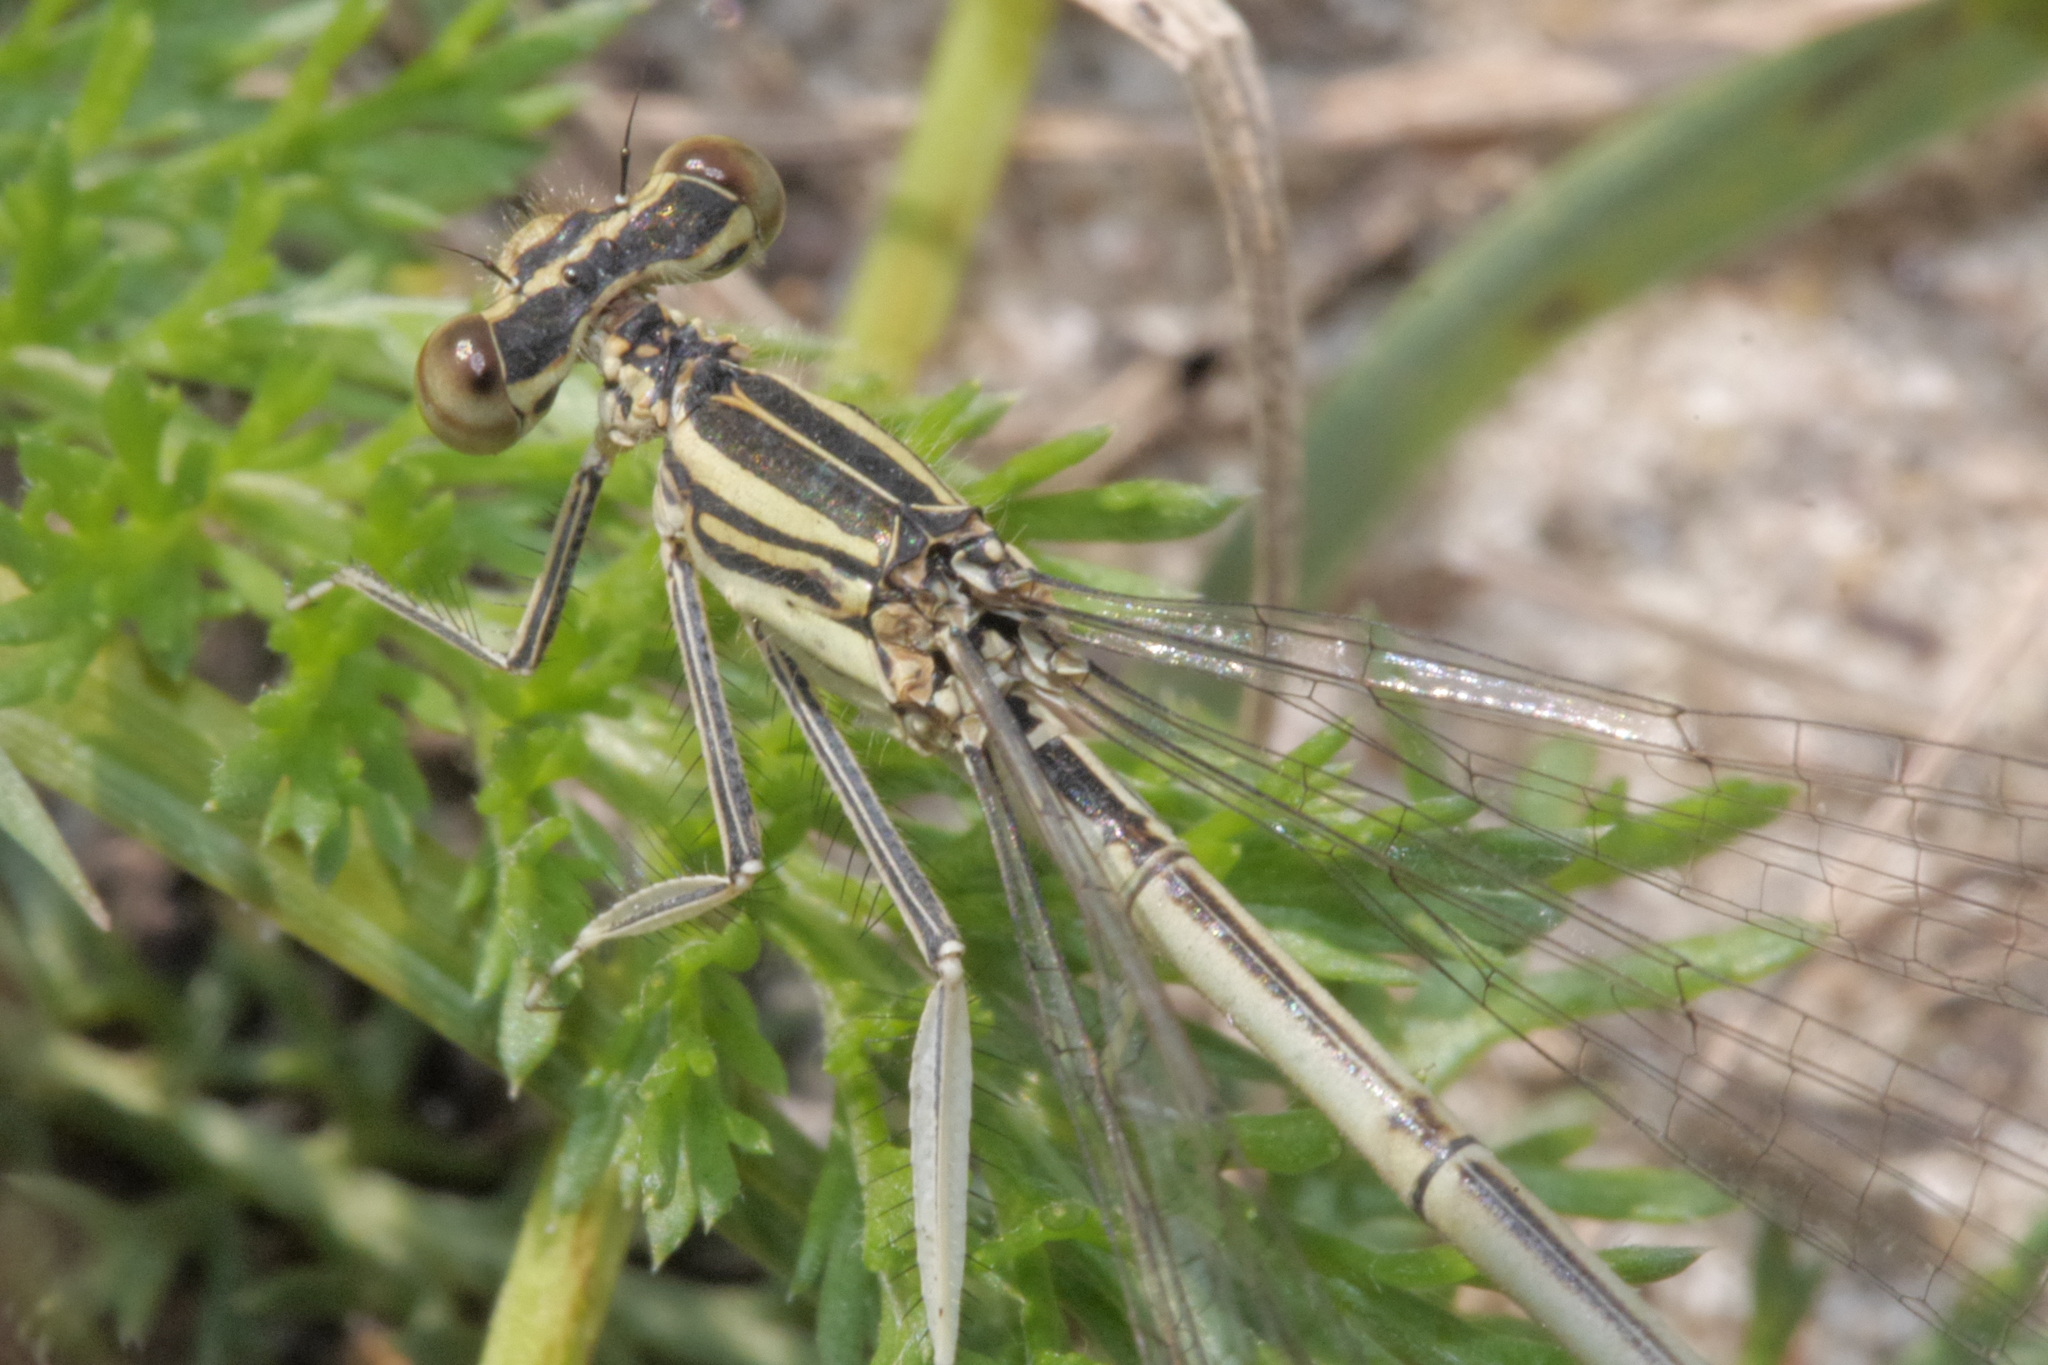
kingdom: Animalia
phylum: Arthropoda
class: Insecta
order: Odonata
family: Platycnemididae
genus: Platycnemis
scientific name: Platycnemis pennipes
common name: White-legged damselfly
